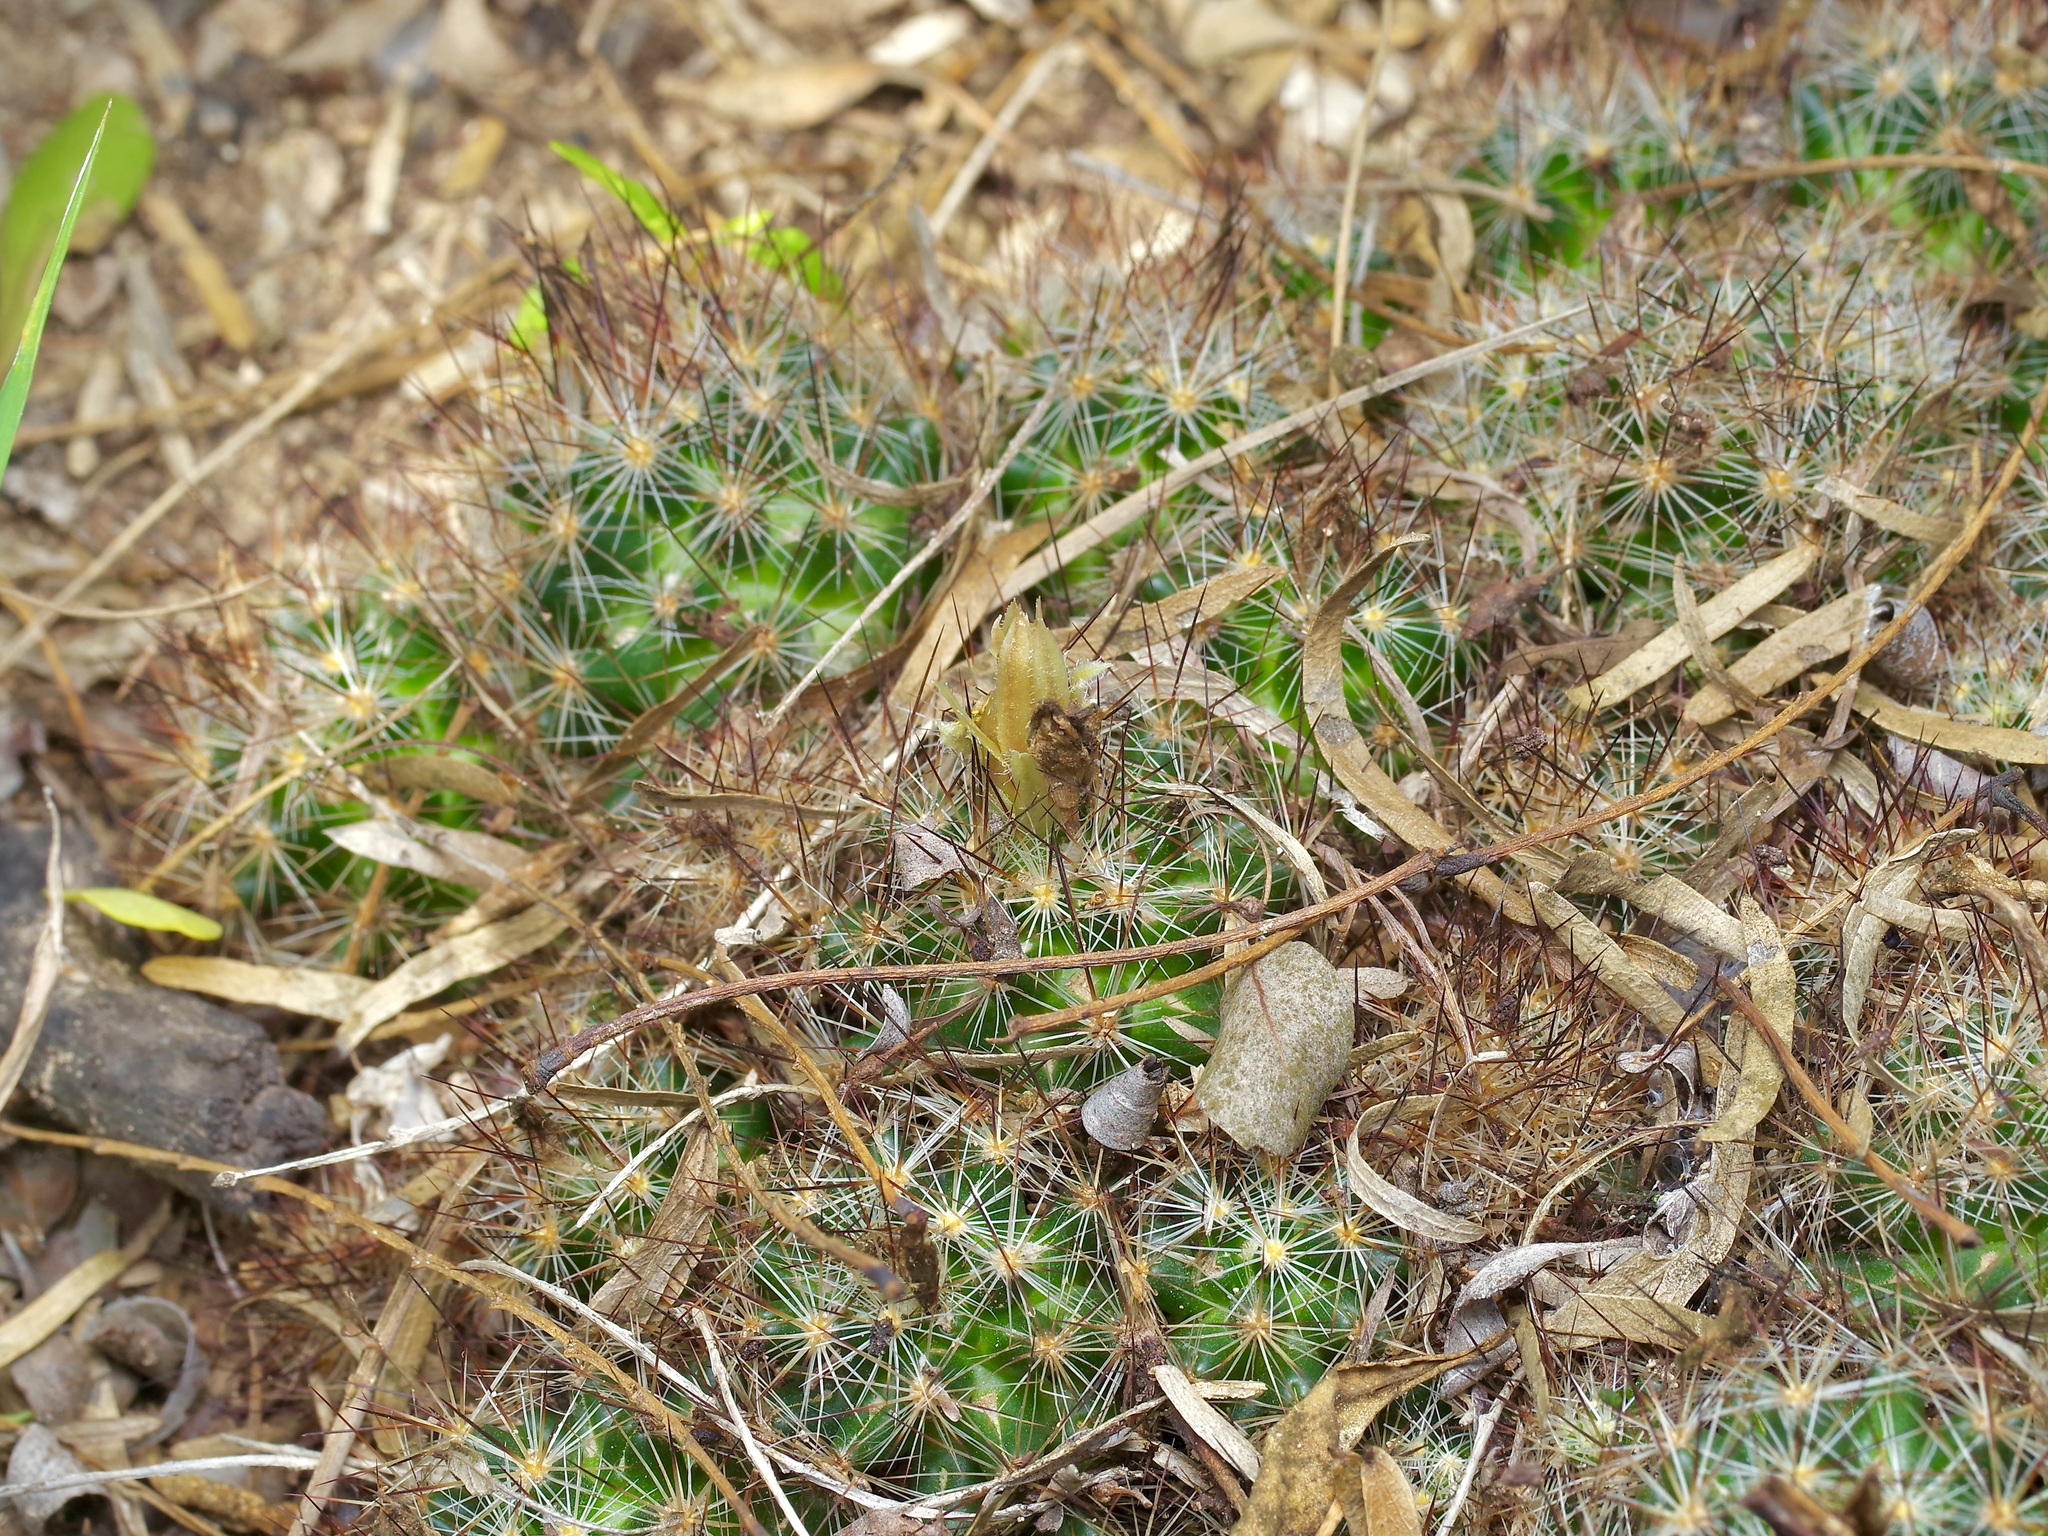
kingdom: Plantae
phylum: Tracheophyta
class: Magnoliopsida
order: Caryophyllales
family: Cactaceae
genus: Pelecyphora
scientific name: Pelecyphora emskoetteriana
